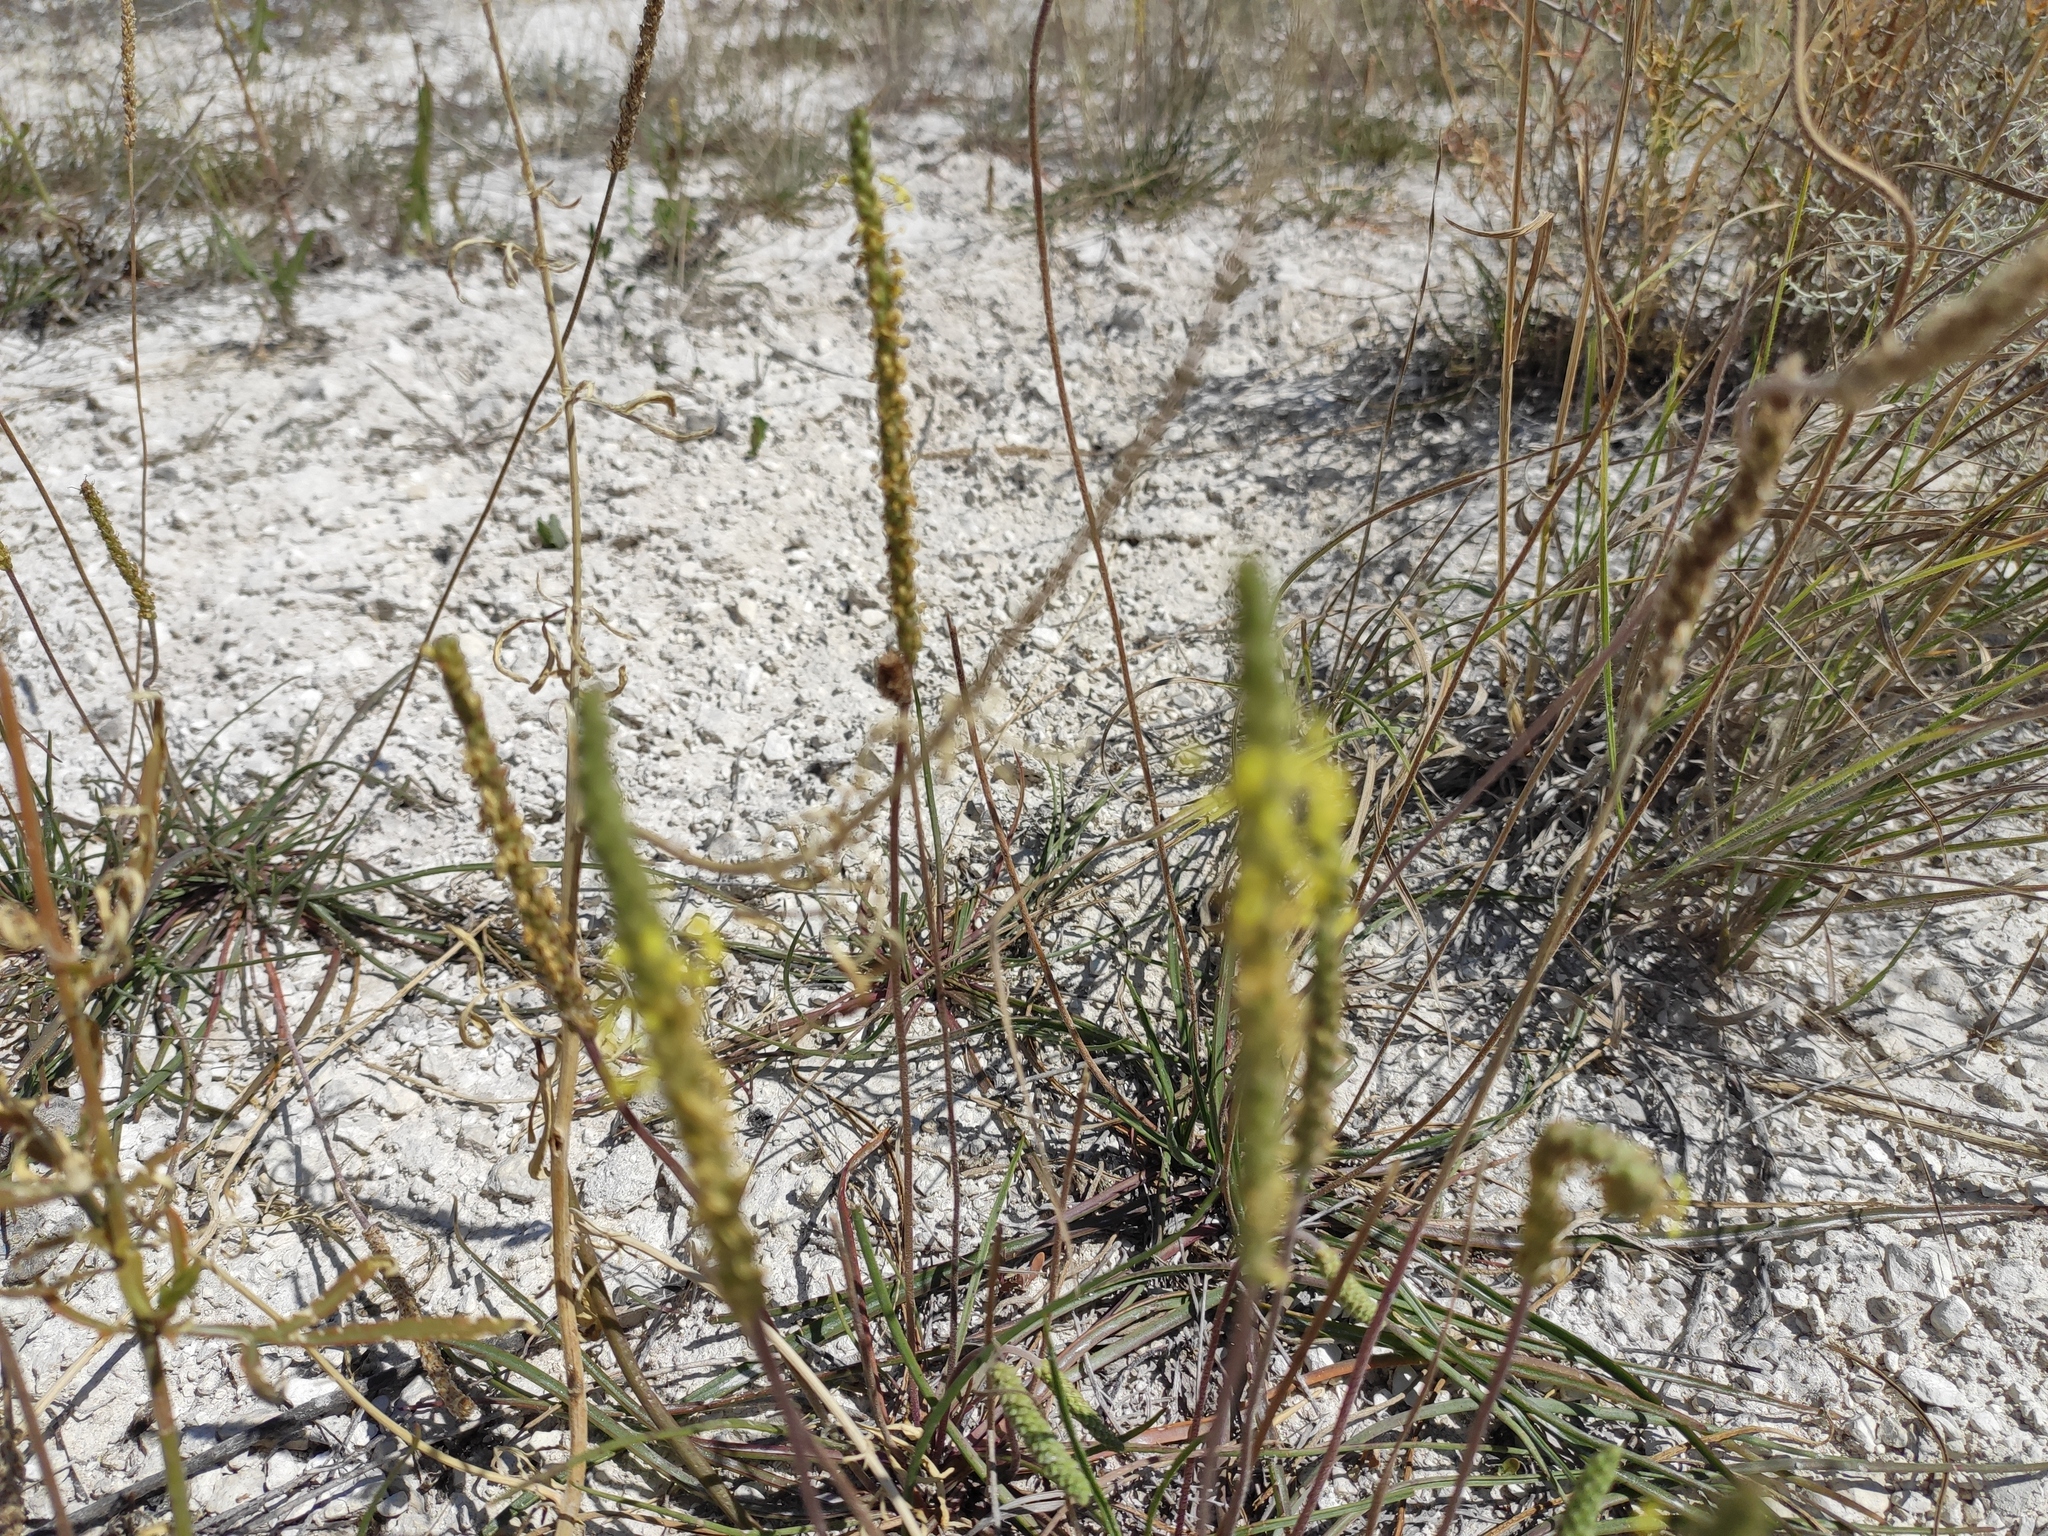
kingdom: Plantae
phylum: Tracheophyta
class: Magnoliopsida
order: Lamiales
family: Plantaginaceae
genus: Plantago
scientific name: Plantago salsa
